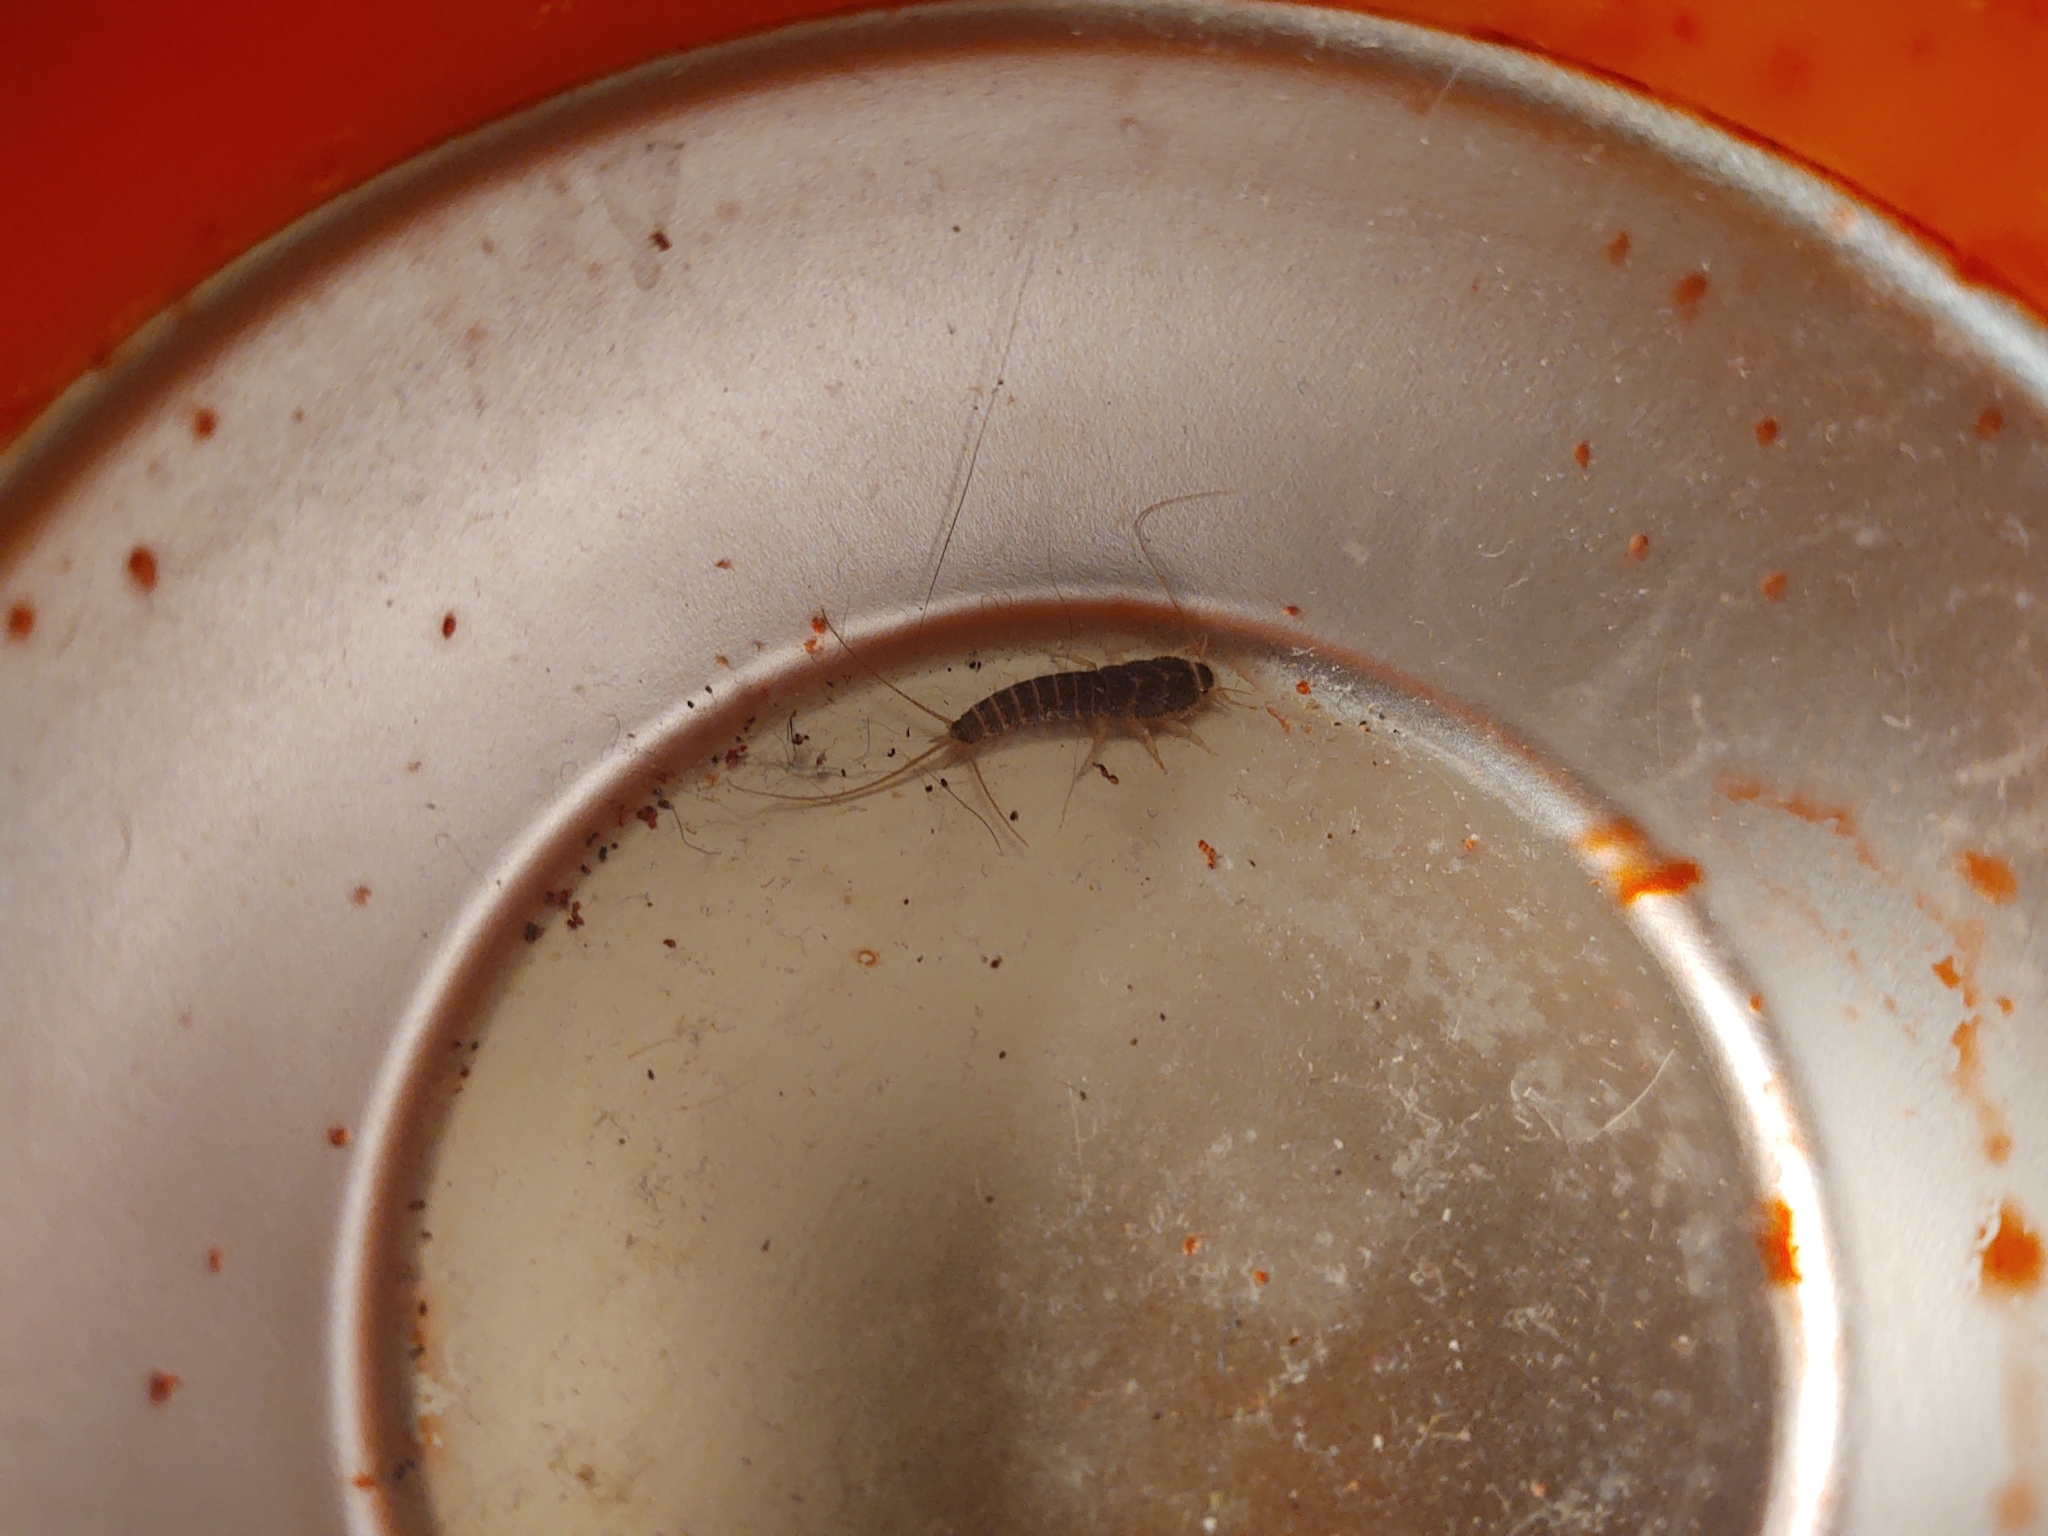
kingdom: Animalia
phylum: Arthropoda
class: Insecta
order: Zygentoma
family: Lepismatidae
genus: Ctenolepisma
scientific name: Ctenolepisma longicaudatum
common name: Silverfish
